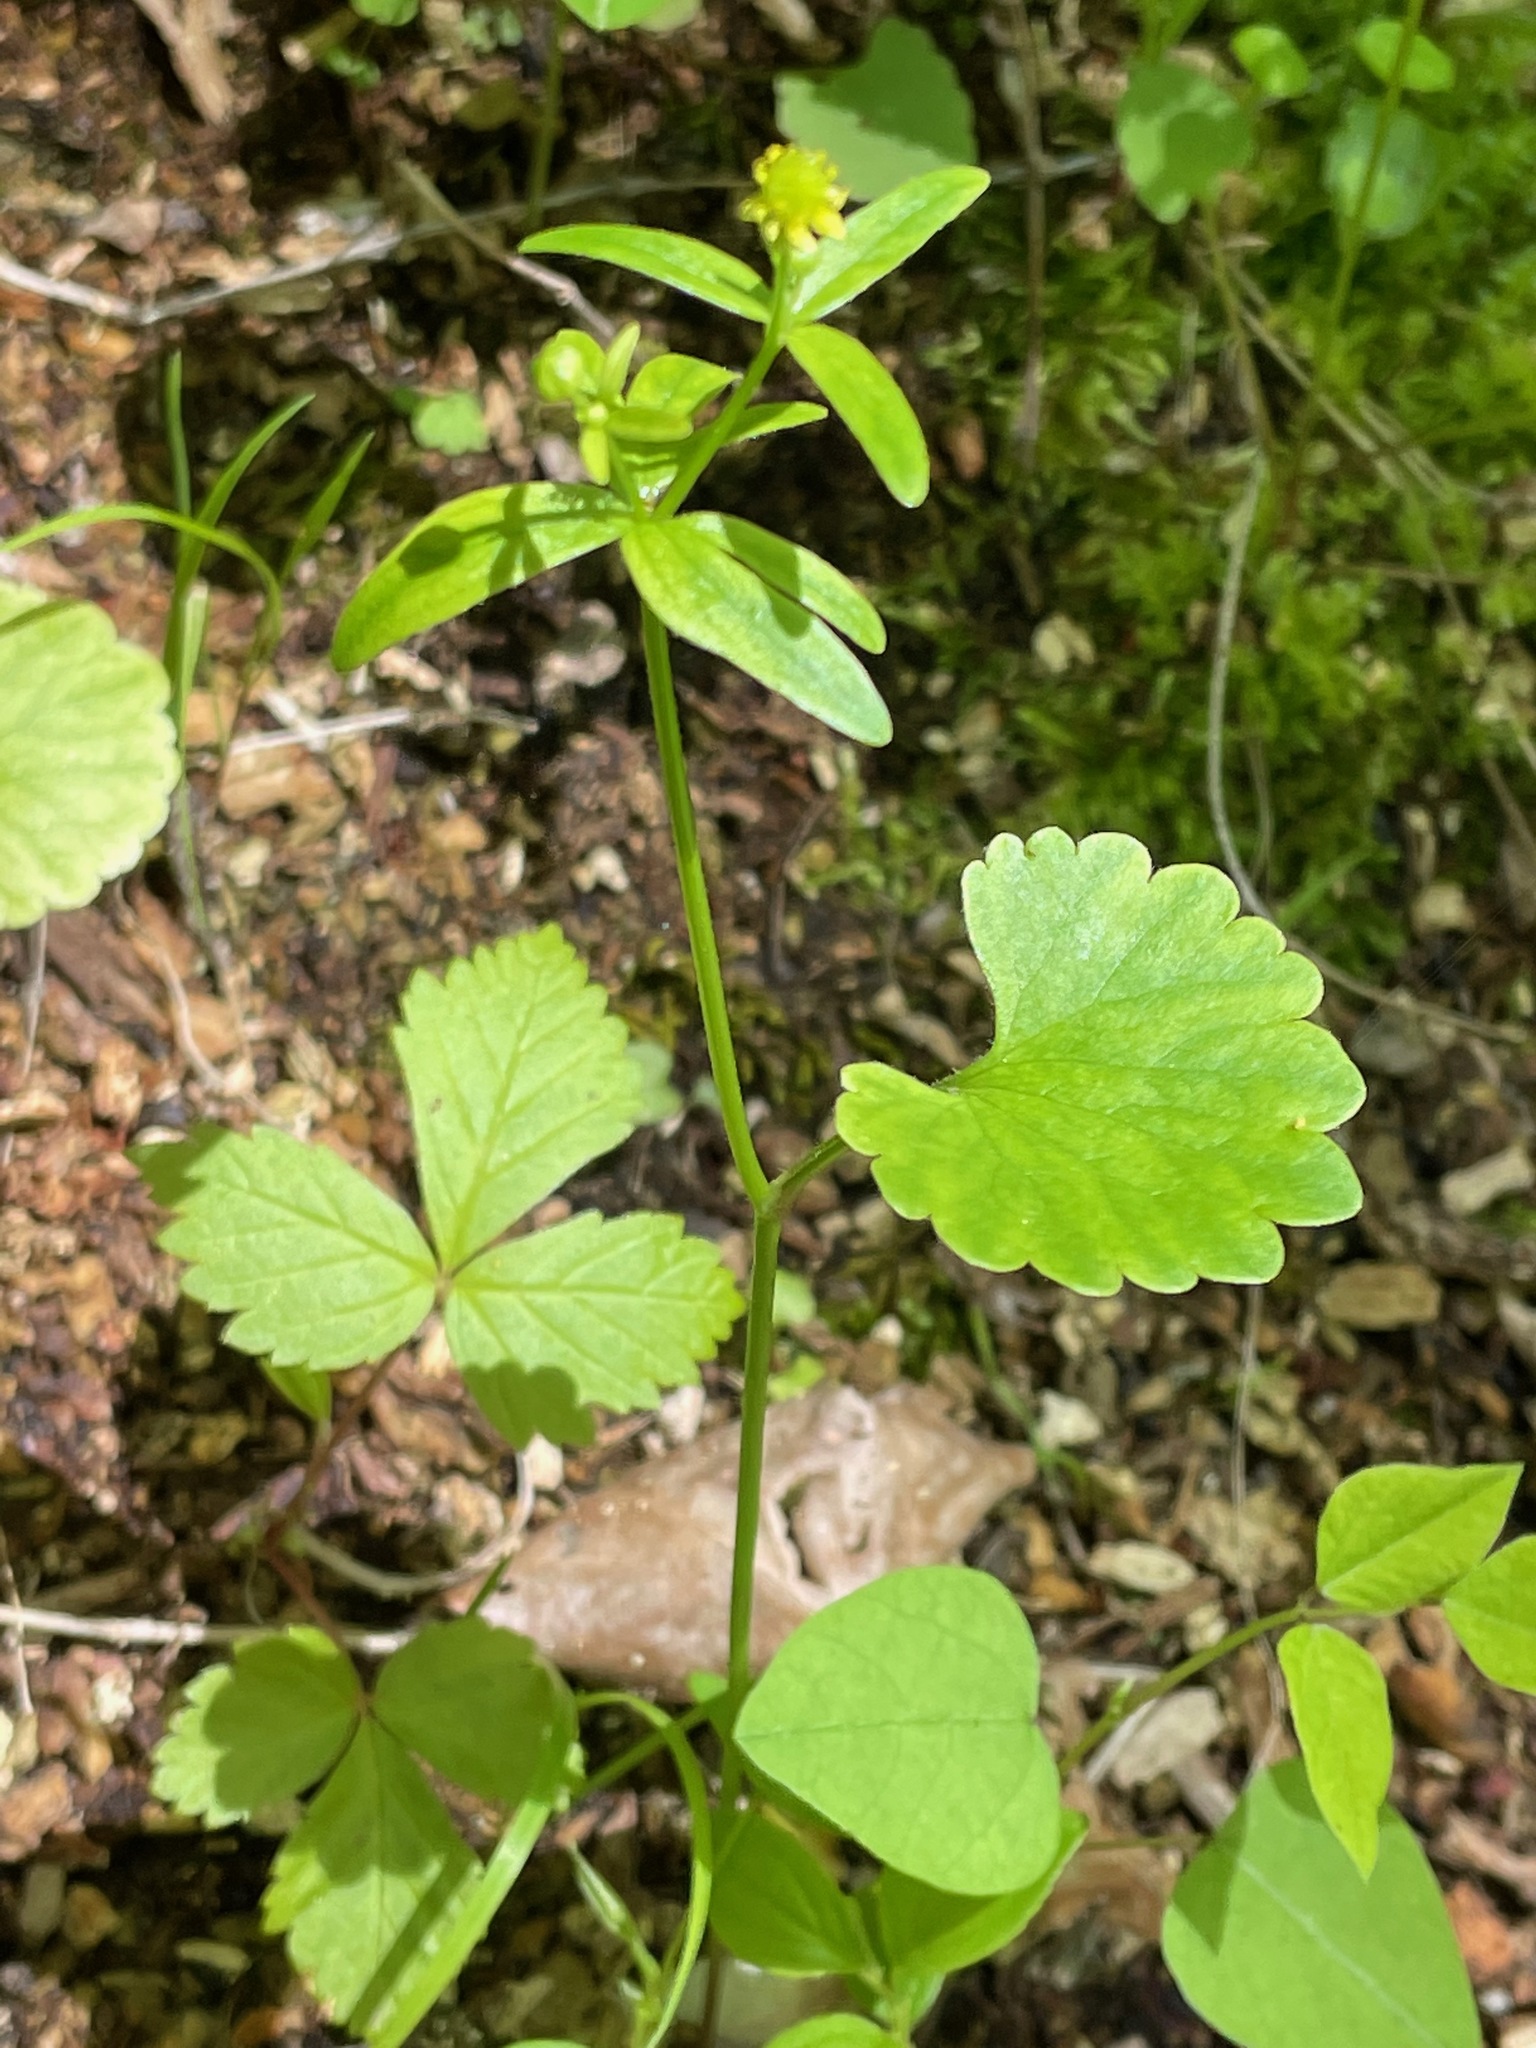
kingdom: Plantae
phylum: Tracheophyta
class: Magnoliopsida
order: Ranunculales
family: Ranunculaceae
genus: Ranunculus
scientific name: Ranunculus abortivus
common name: Early wood buttercup
